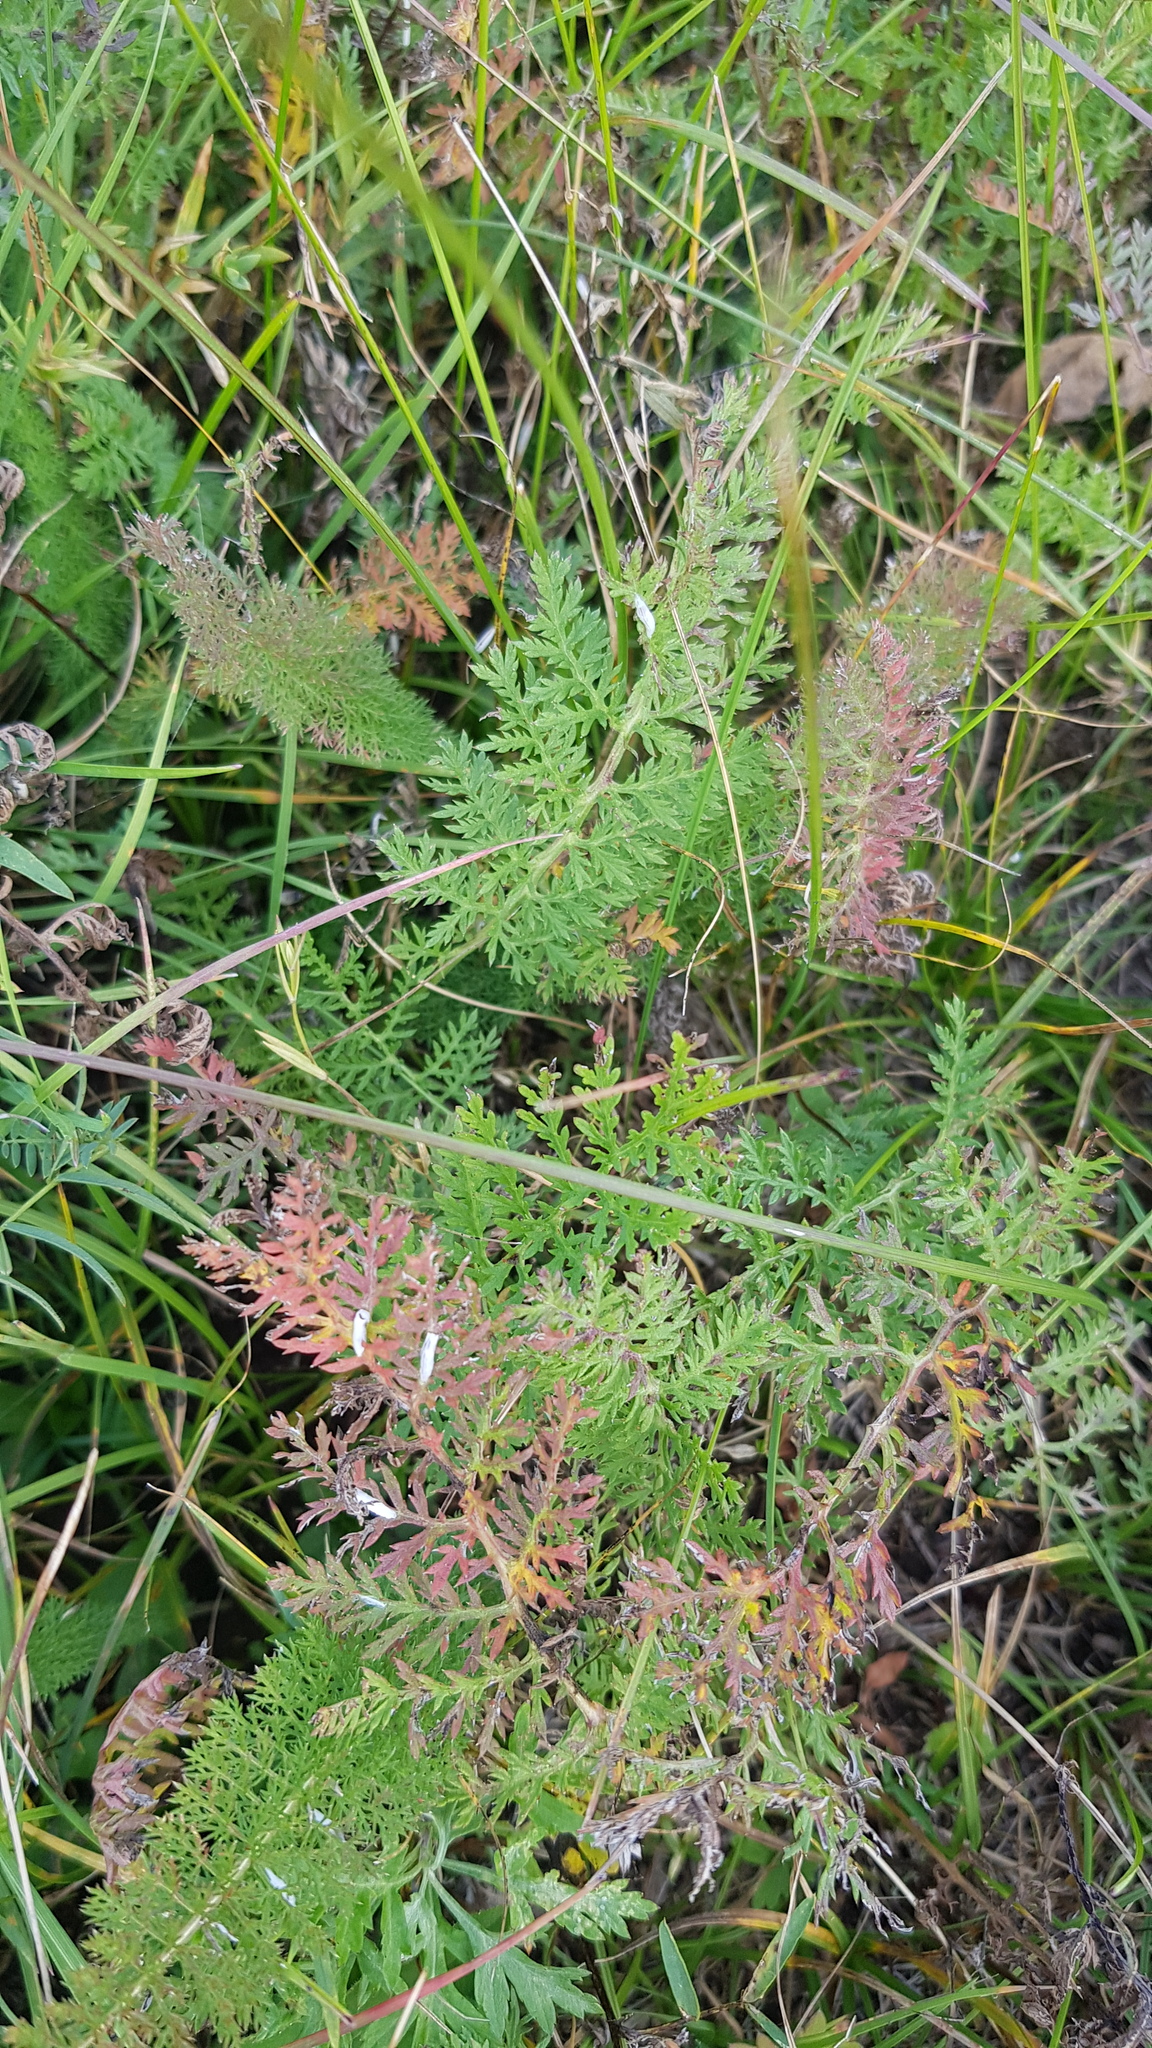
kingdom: Plantae
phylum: Tracheophyta
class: Magnoliopsida
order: Asterales
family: Asteraceae
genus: Achillea
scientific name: Achillea asiatica
